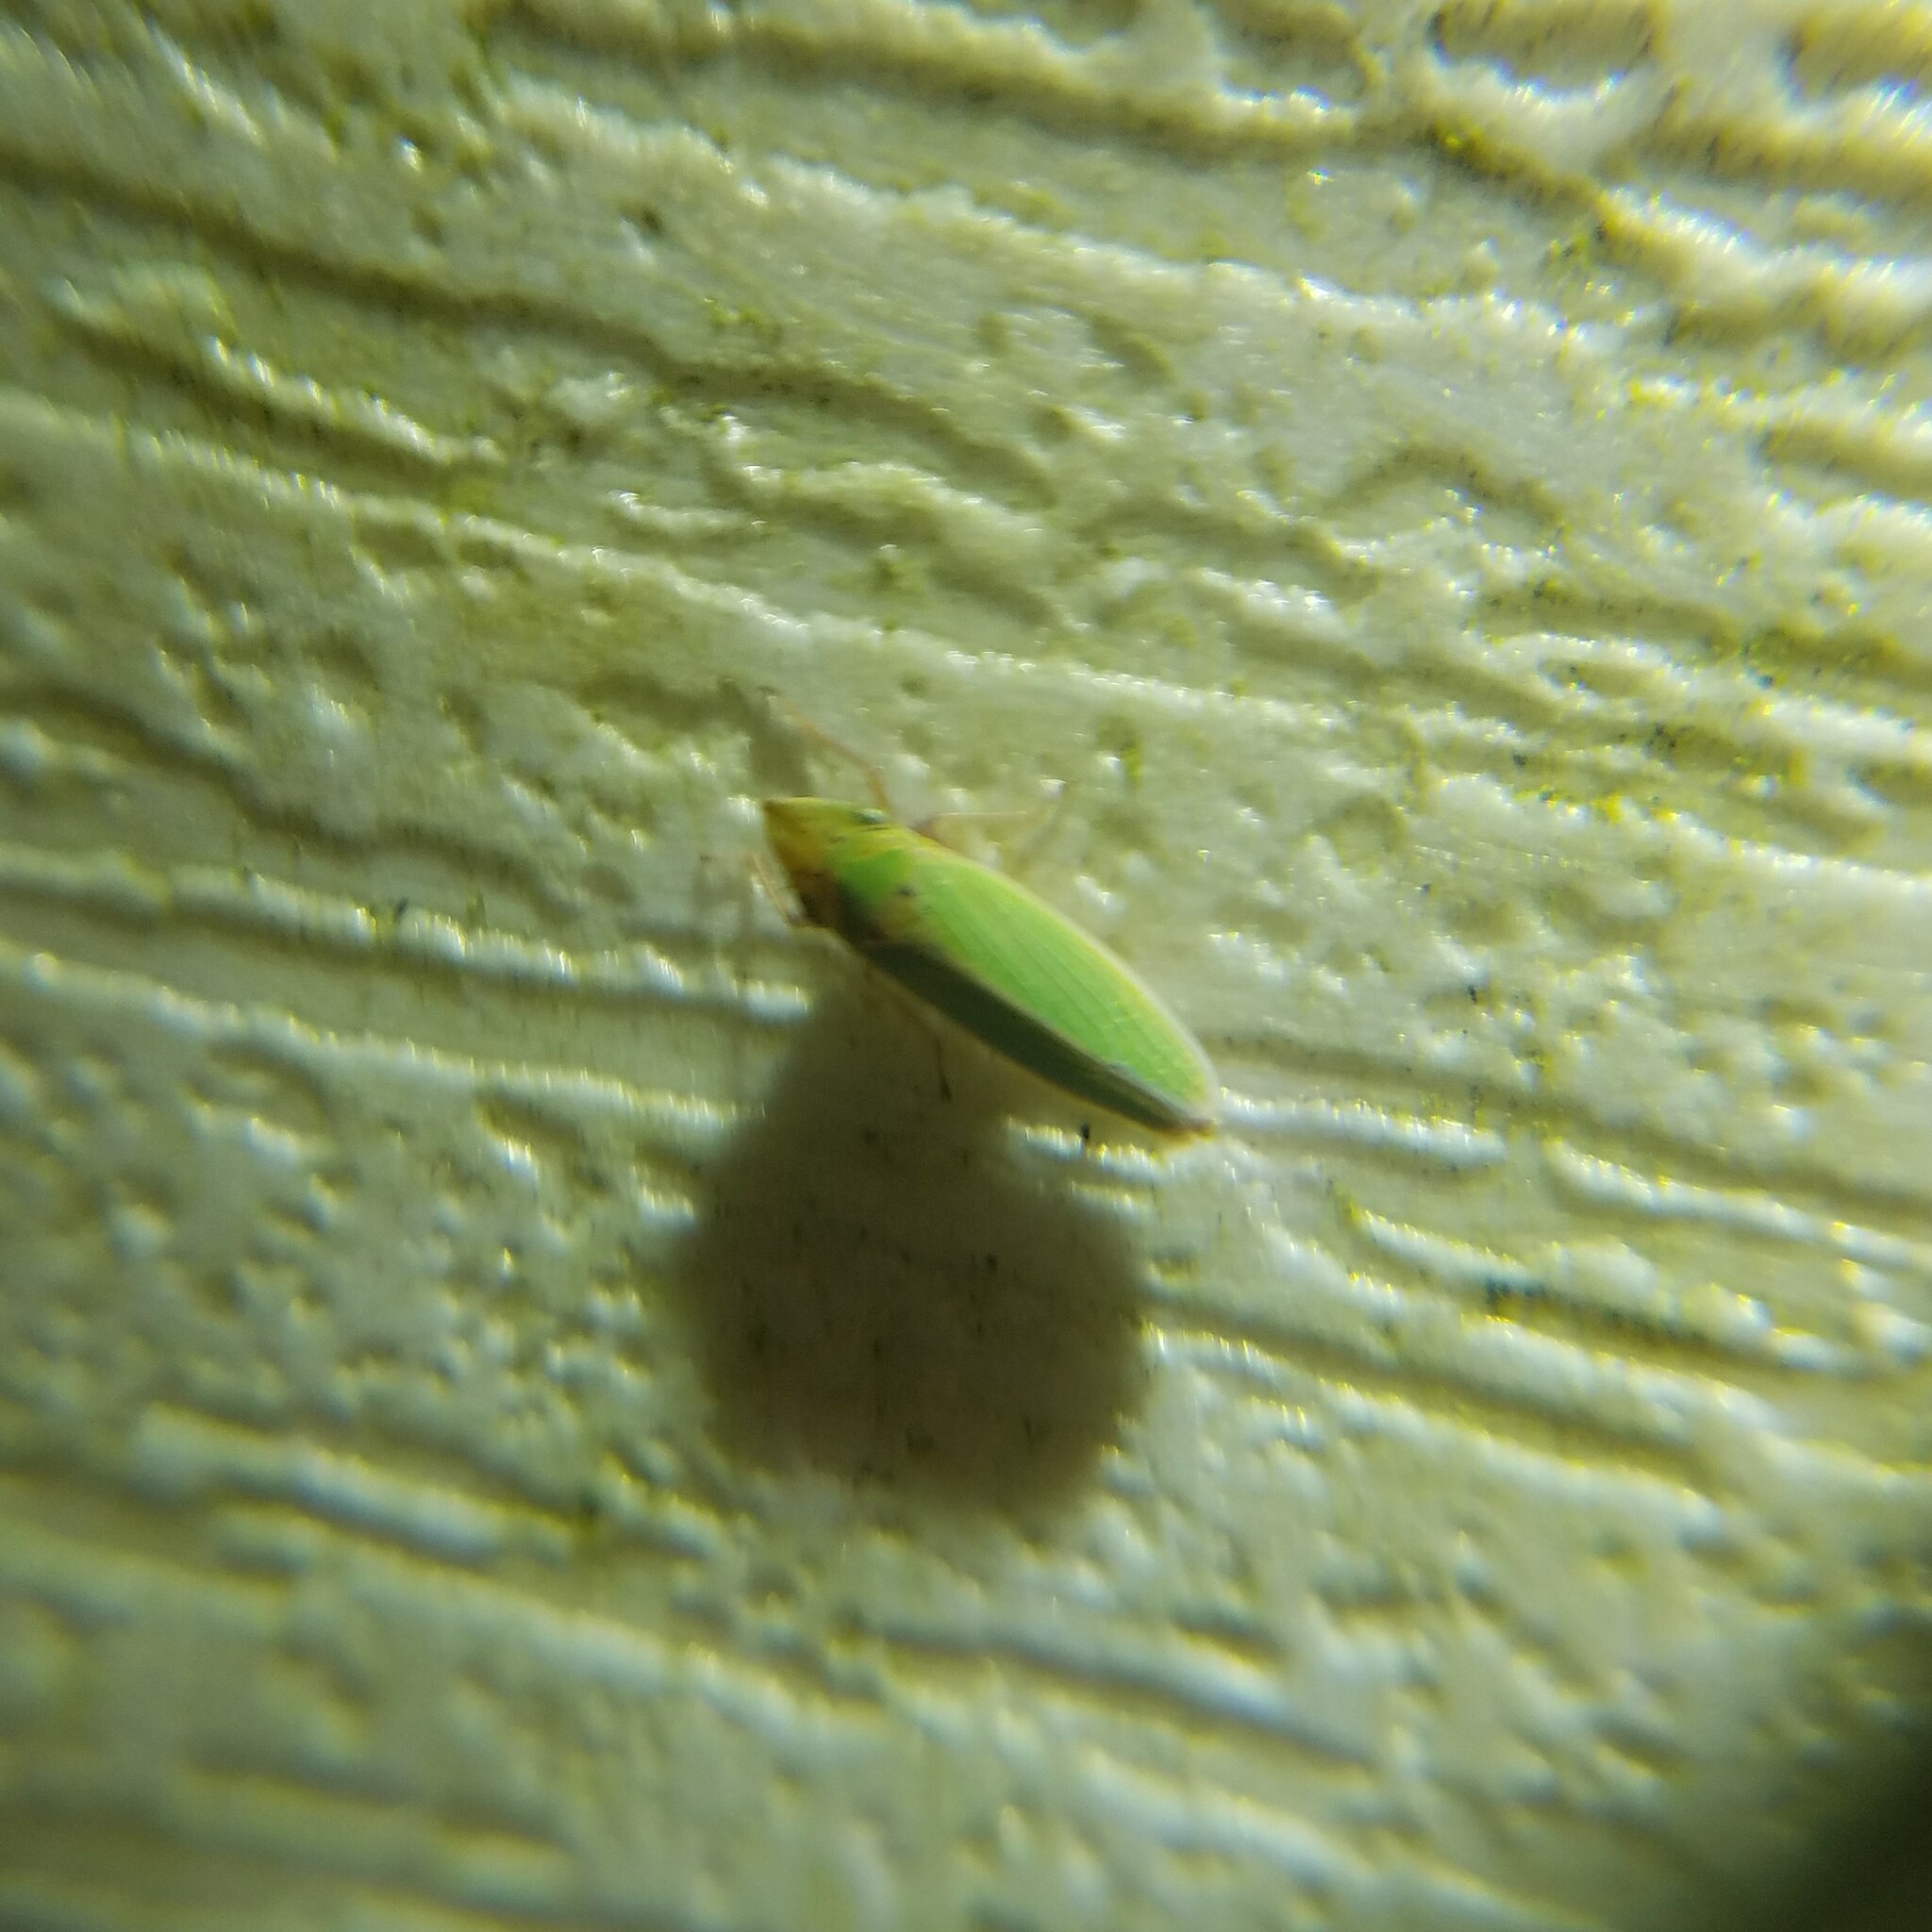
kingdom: Animalia
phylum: Arthropoda
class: Insecta
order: Hemiptera
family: Cicadellidae
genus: Draeculacephala
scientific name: Draeculacephala balli
